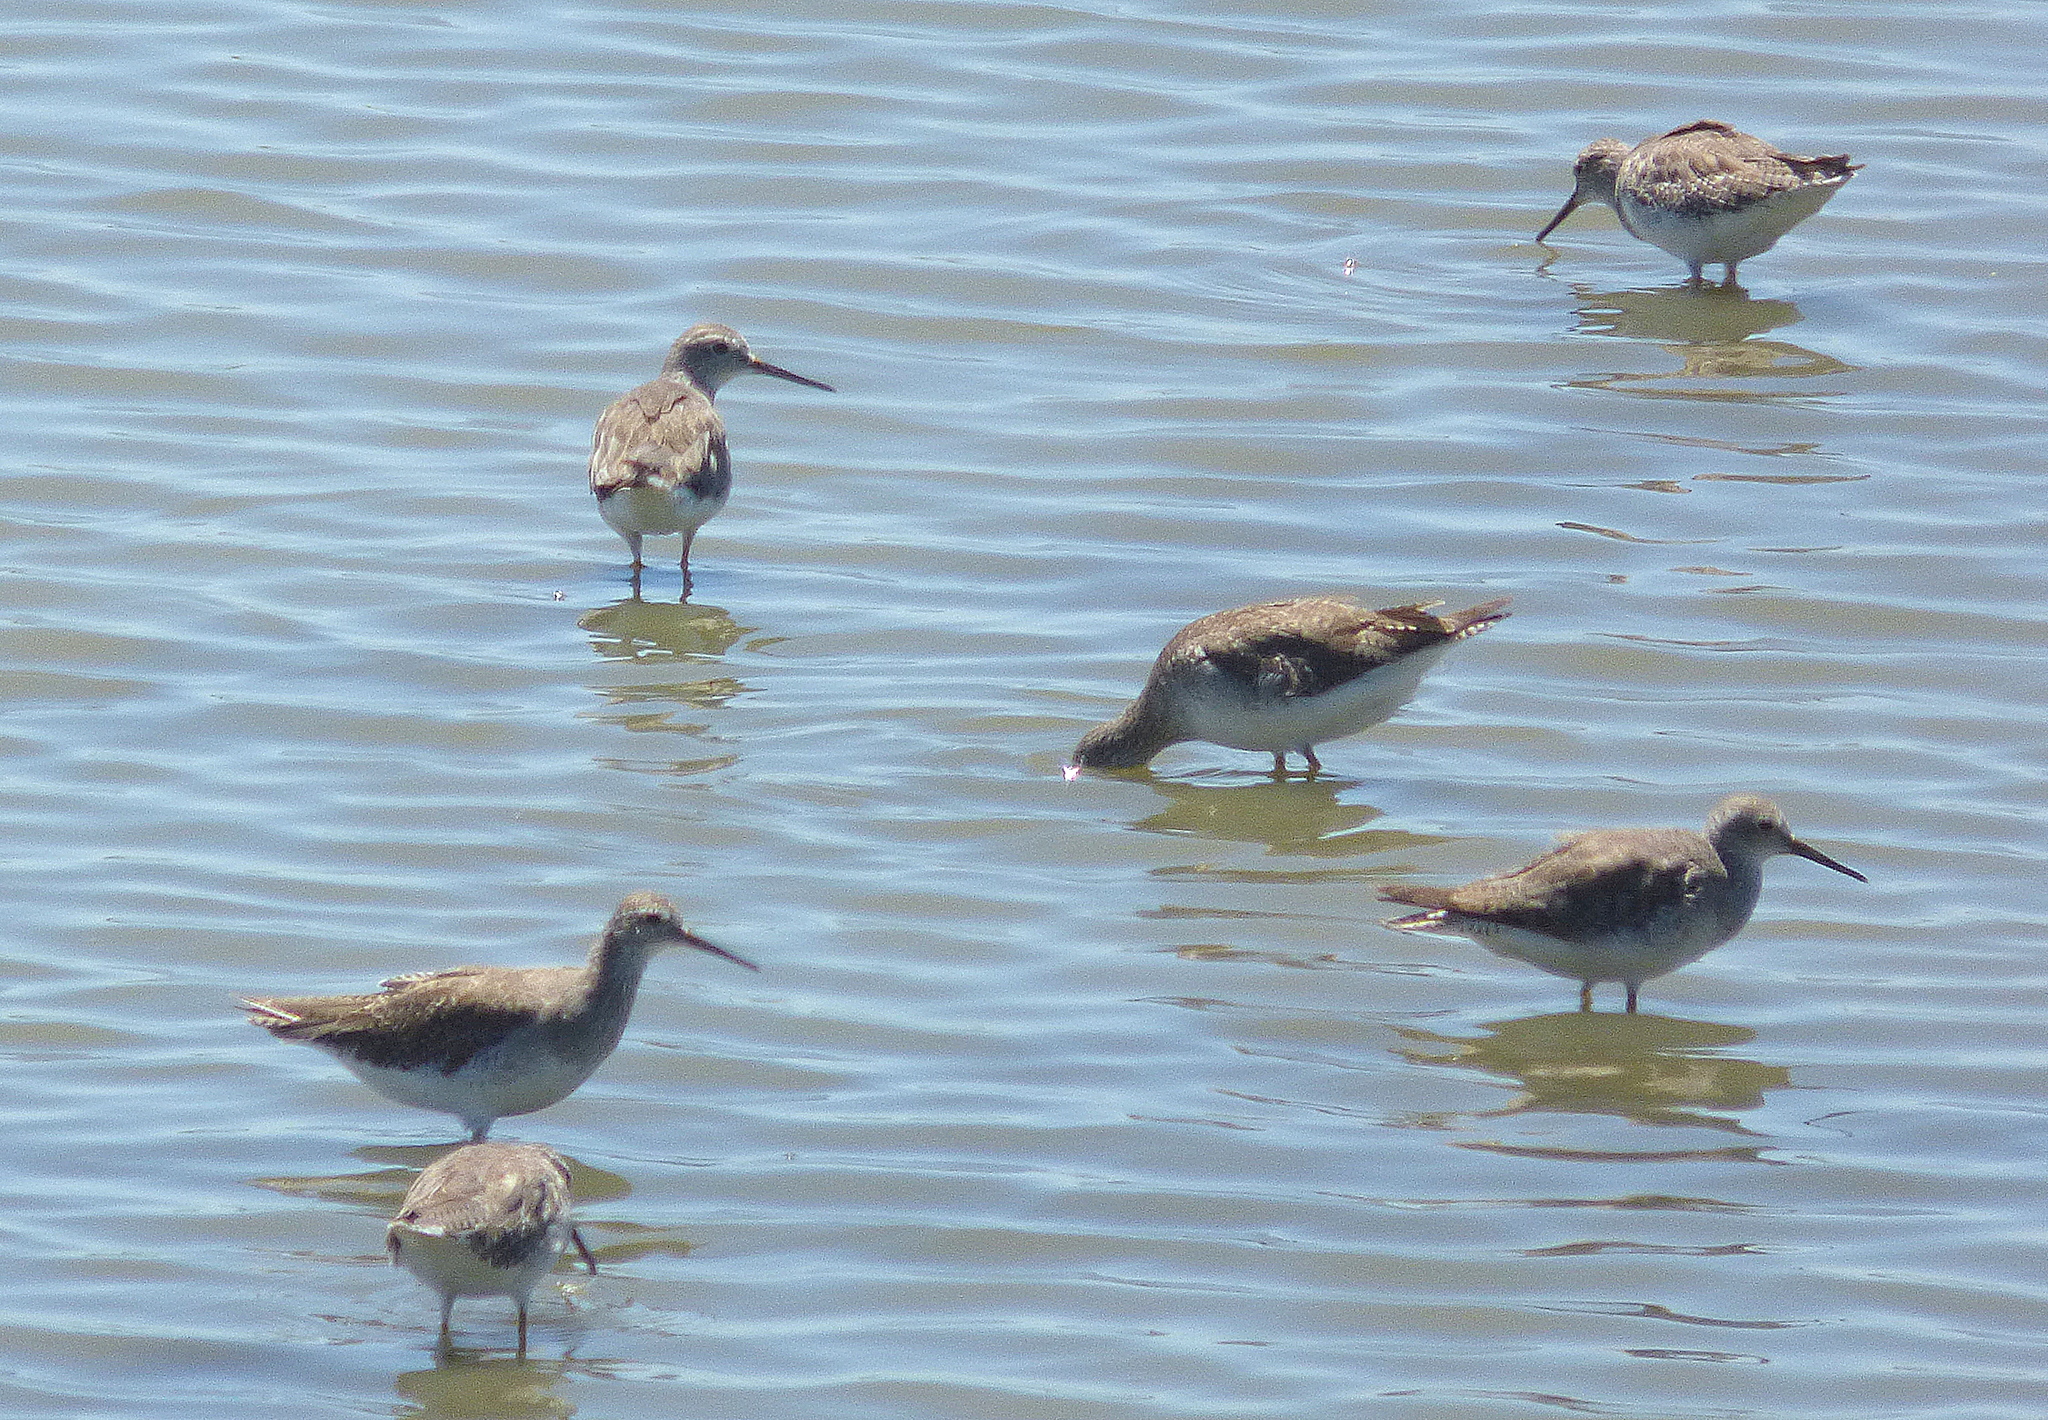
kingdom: Animalia
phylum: Chordata
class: Aves
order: Charadriiformes
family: Scolopacidae
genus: Tringa
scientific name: Tringa melanoleuca
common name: Greater yellowlegs
